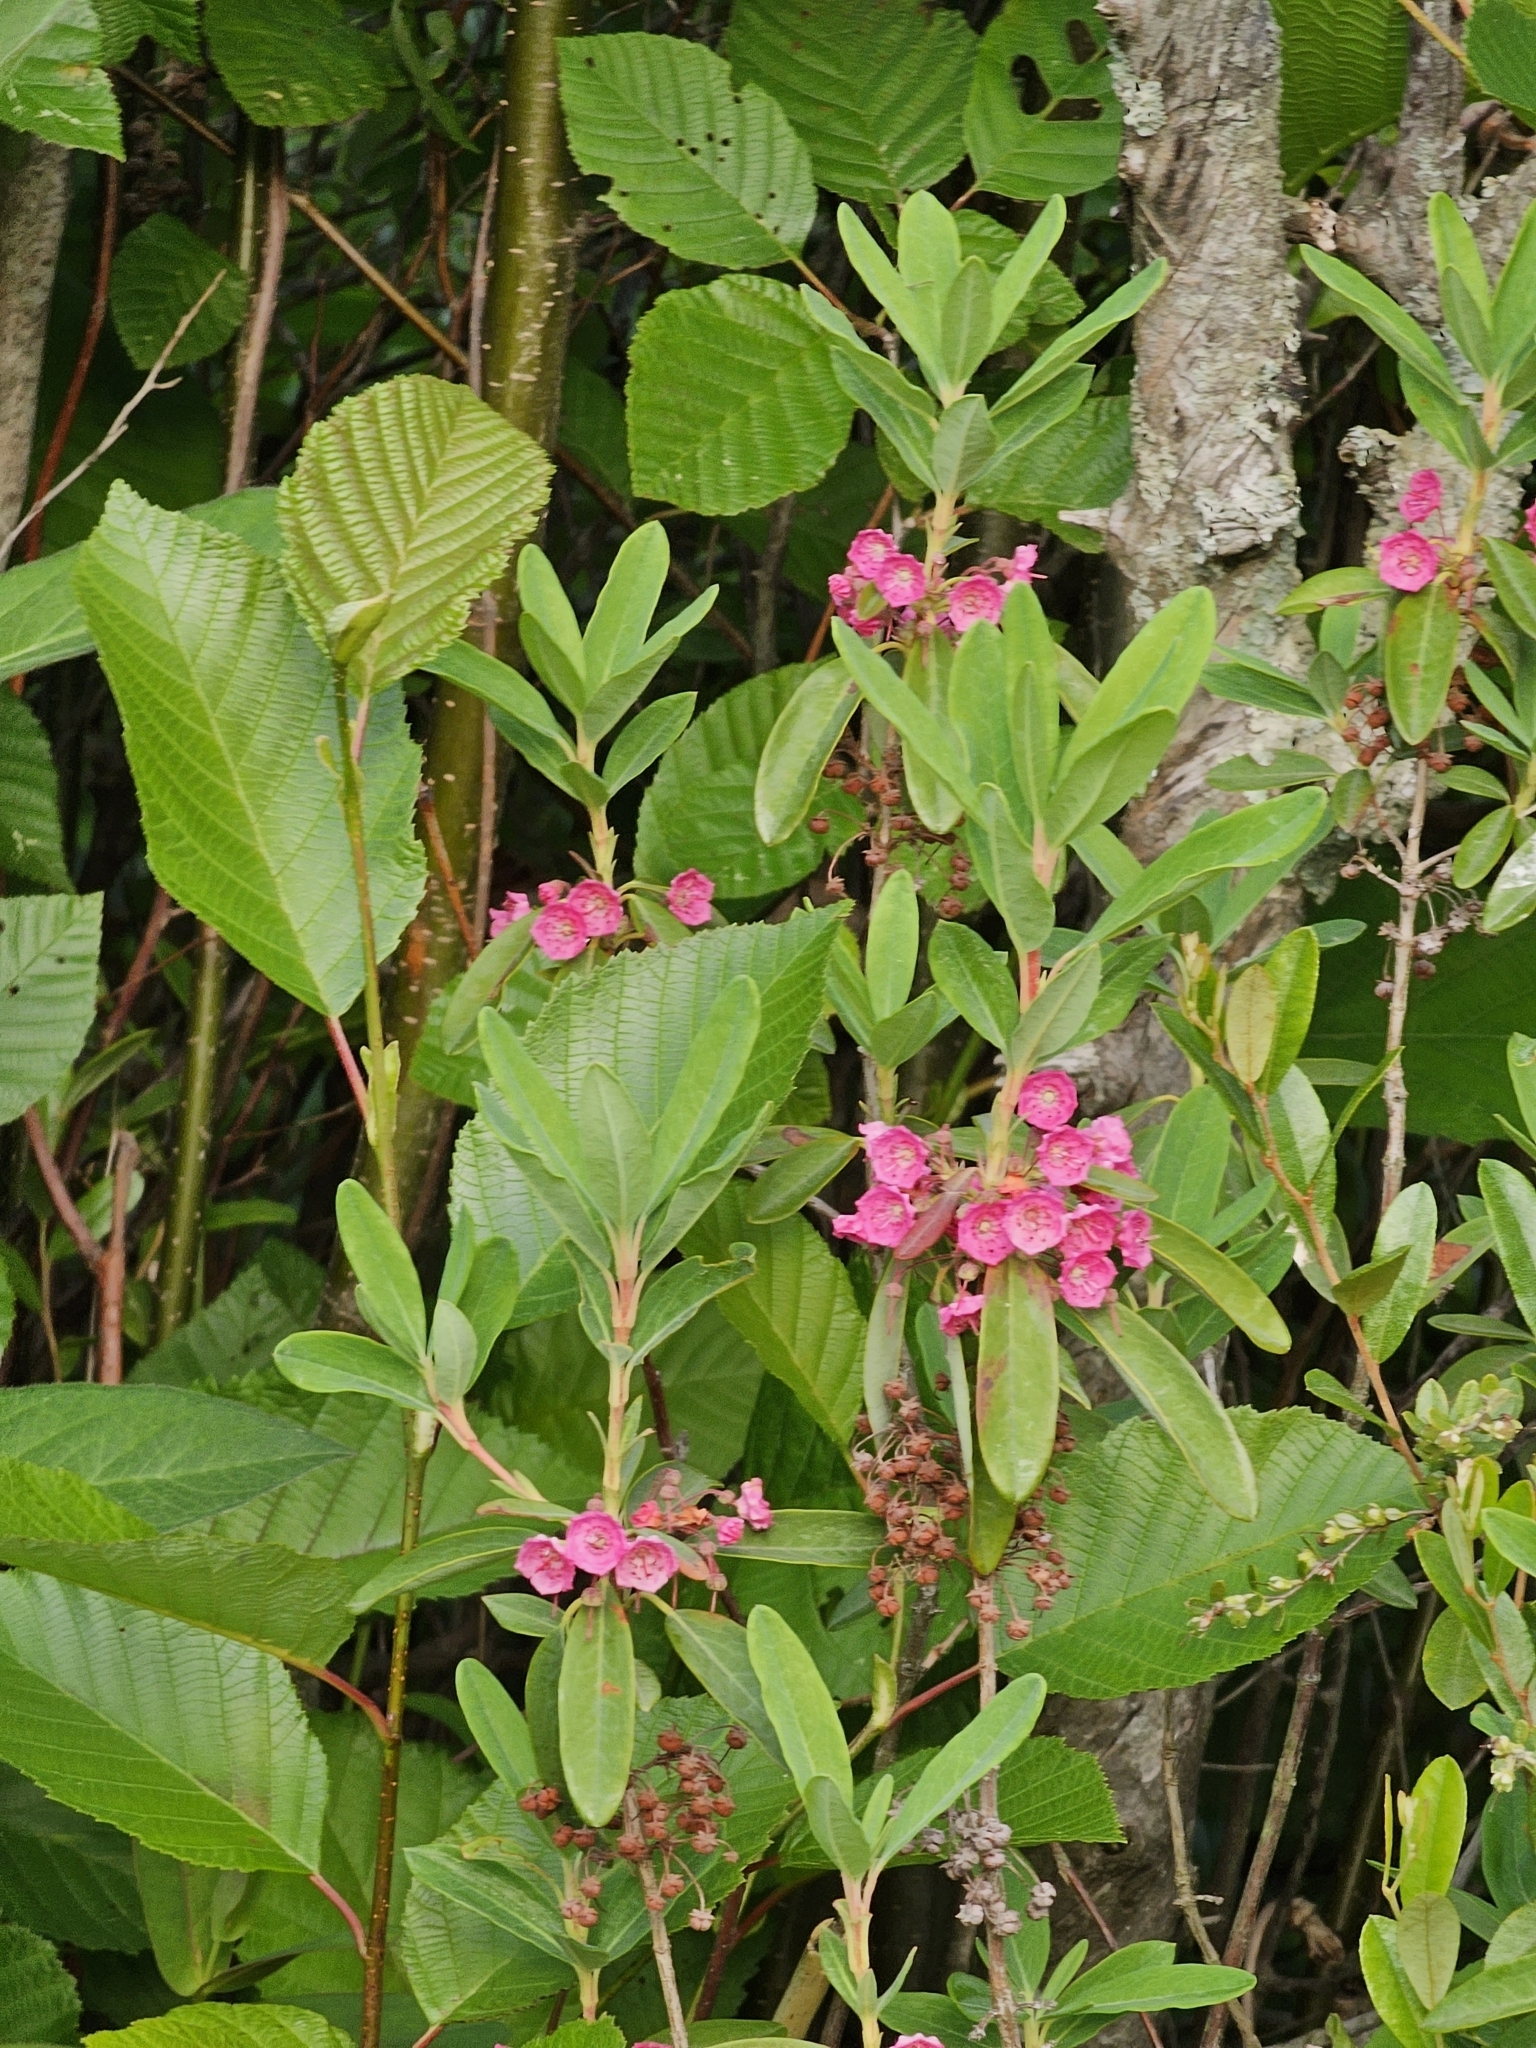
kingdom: Plantae
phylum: Tracheophyta
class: Magnoliopsida
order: Ericales
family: Ericaceae
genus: Kalmia
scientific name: Kalmia angustifolia
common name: Sheep-laurel
